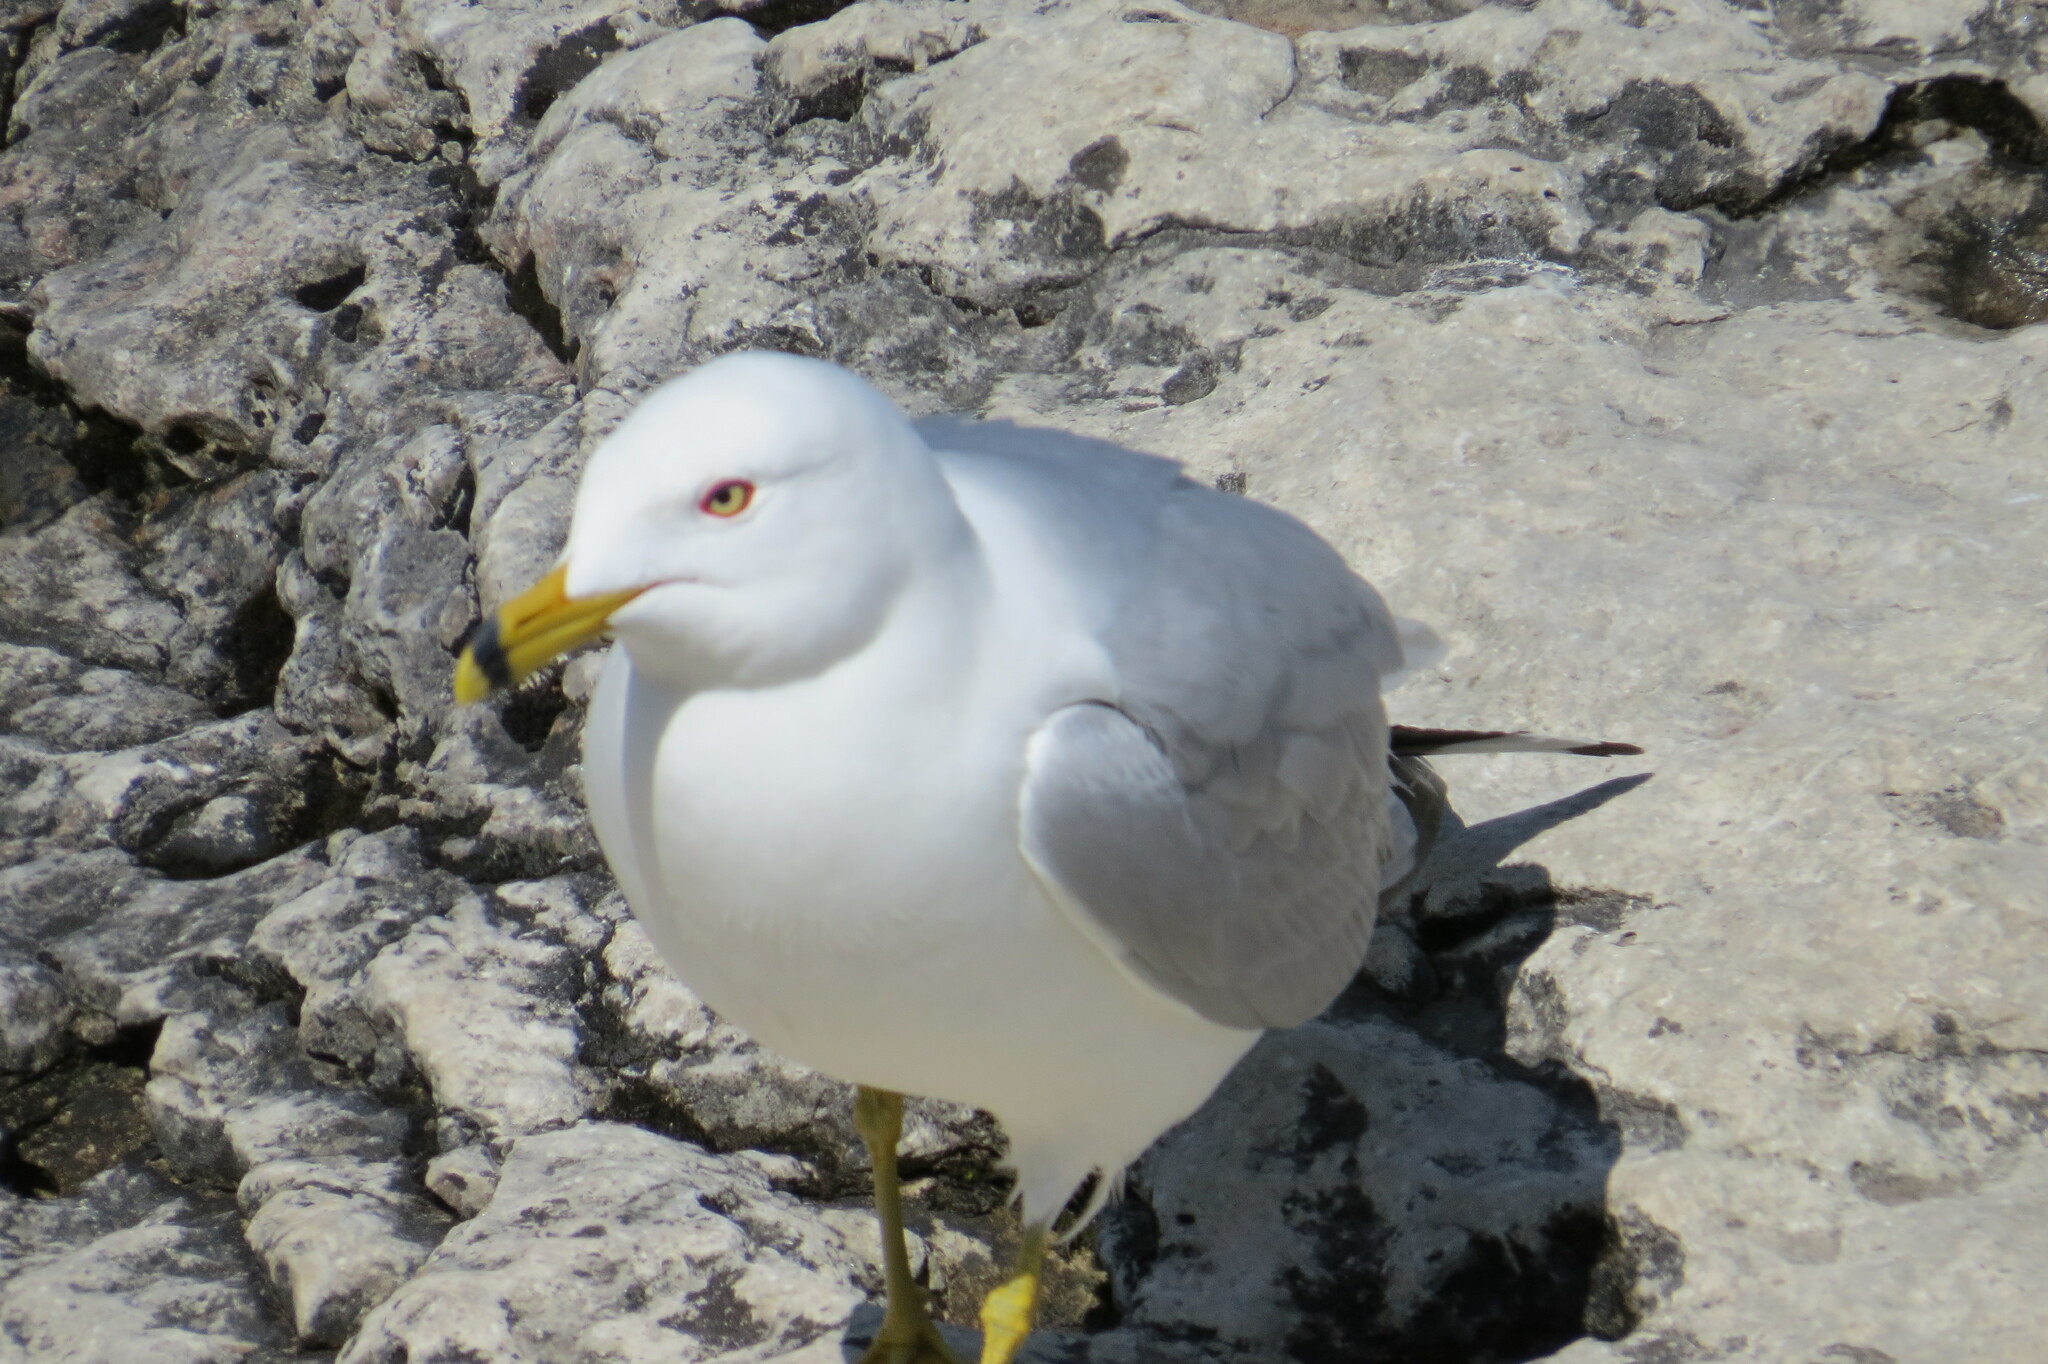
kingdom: Animalia
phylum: Chordata
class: Aves
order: Charadriiformes
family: Laridae
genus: Larus
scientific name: Larus delawarensis
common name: Ring-billed gull
